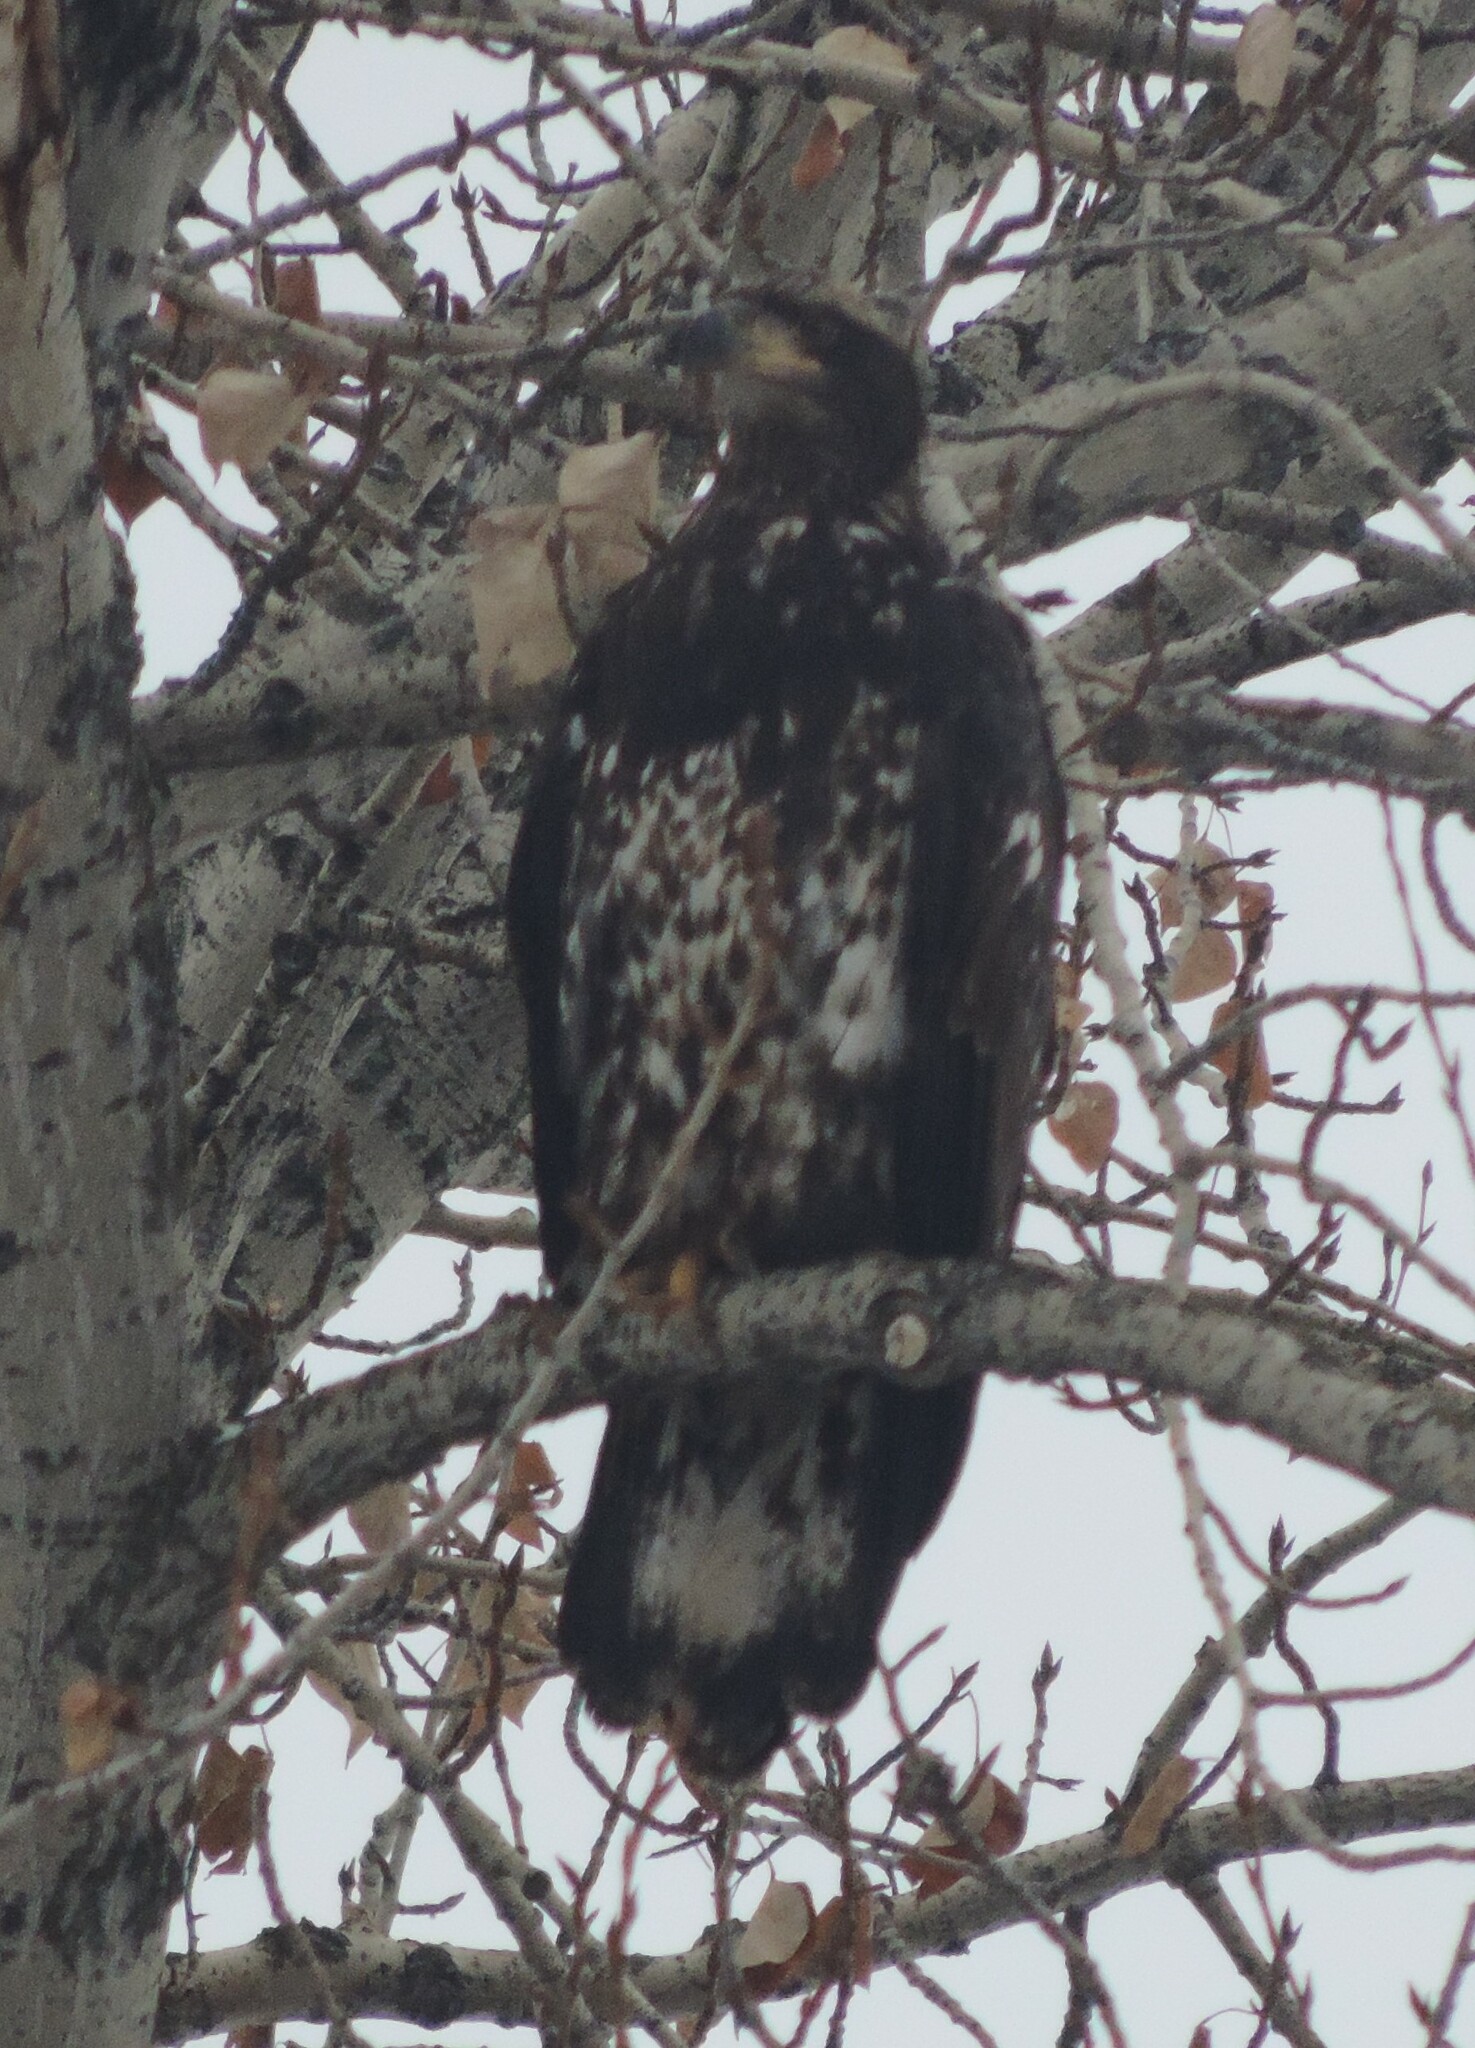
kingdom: Animalia
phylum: Chordata
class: Aves
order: Accipitriformes
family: Accipitridae
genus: Haliaeetus
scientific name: Haliaeetus leucocephalus
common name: Bald eagle
